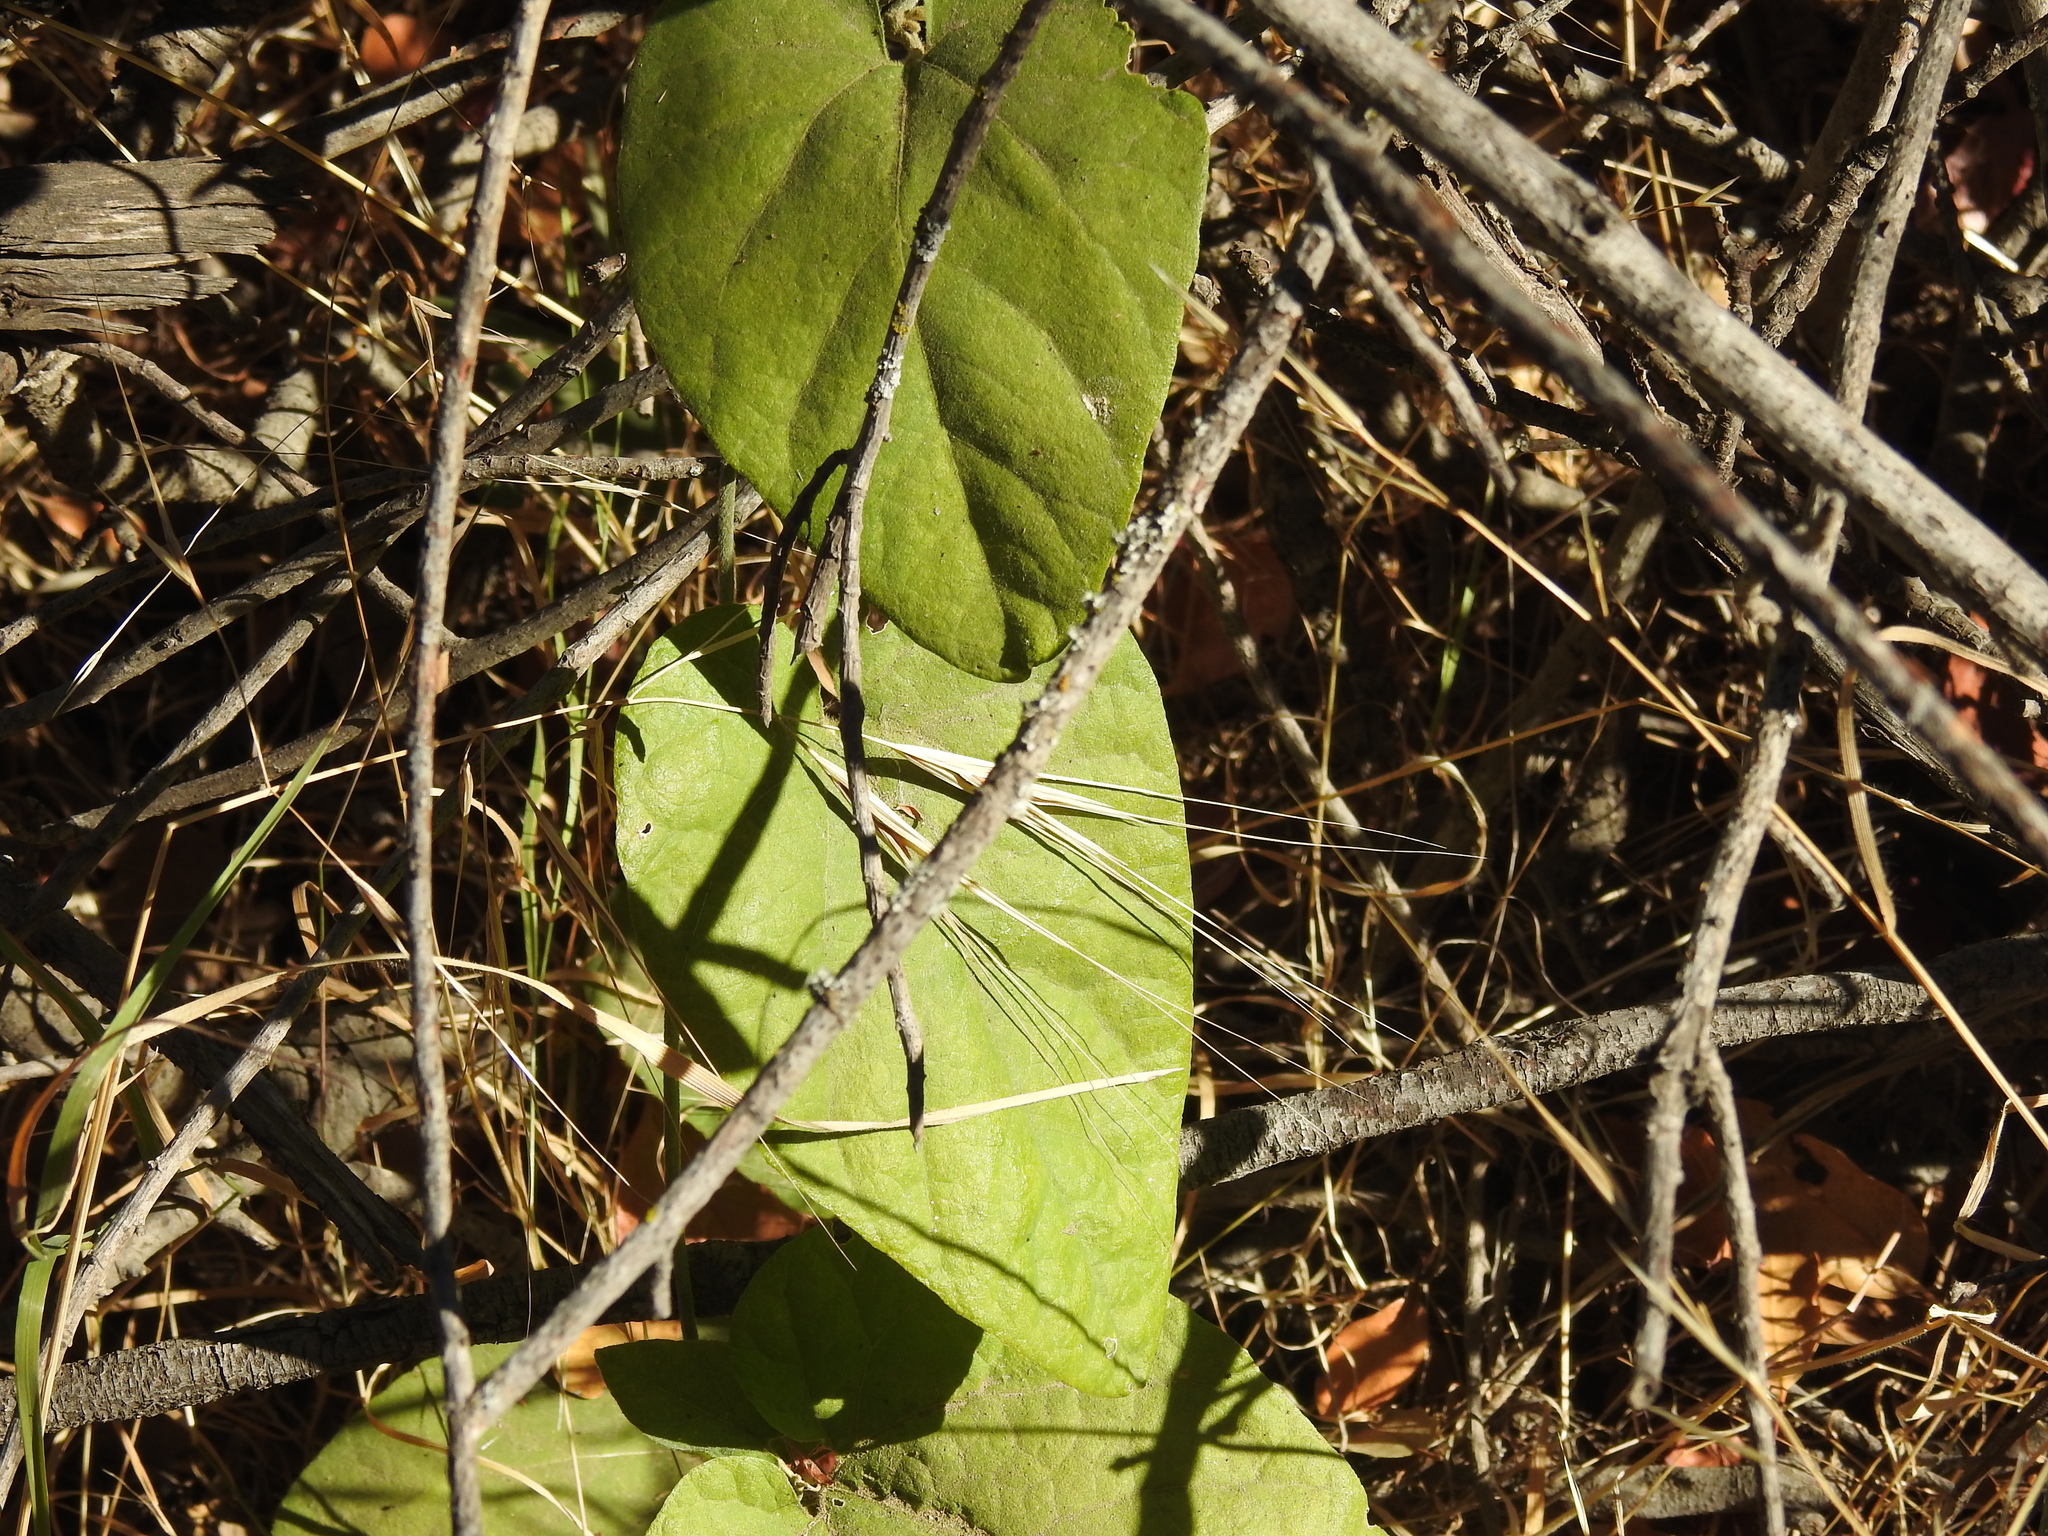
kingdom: Plantae
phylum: Tracheophyta
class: Magnoliopsida
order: Piperales
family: Aristolochiaceae
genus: Isotrema
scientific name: Isotrema californicum
